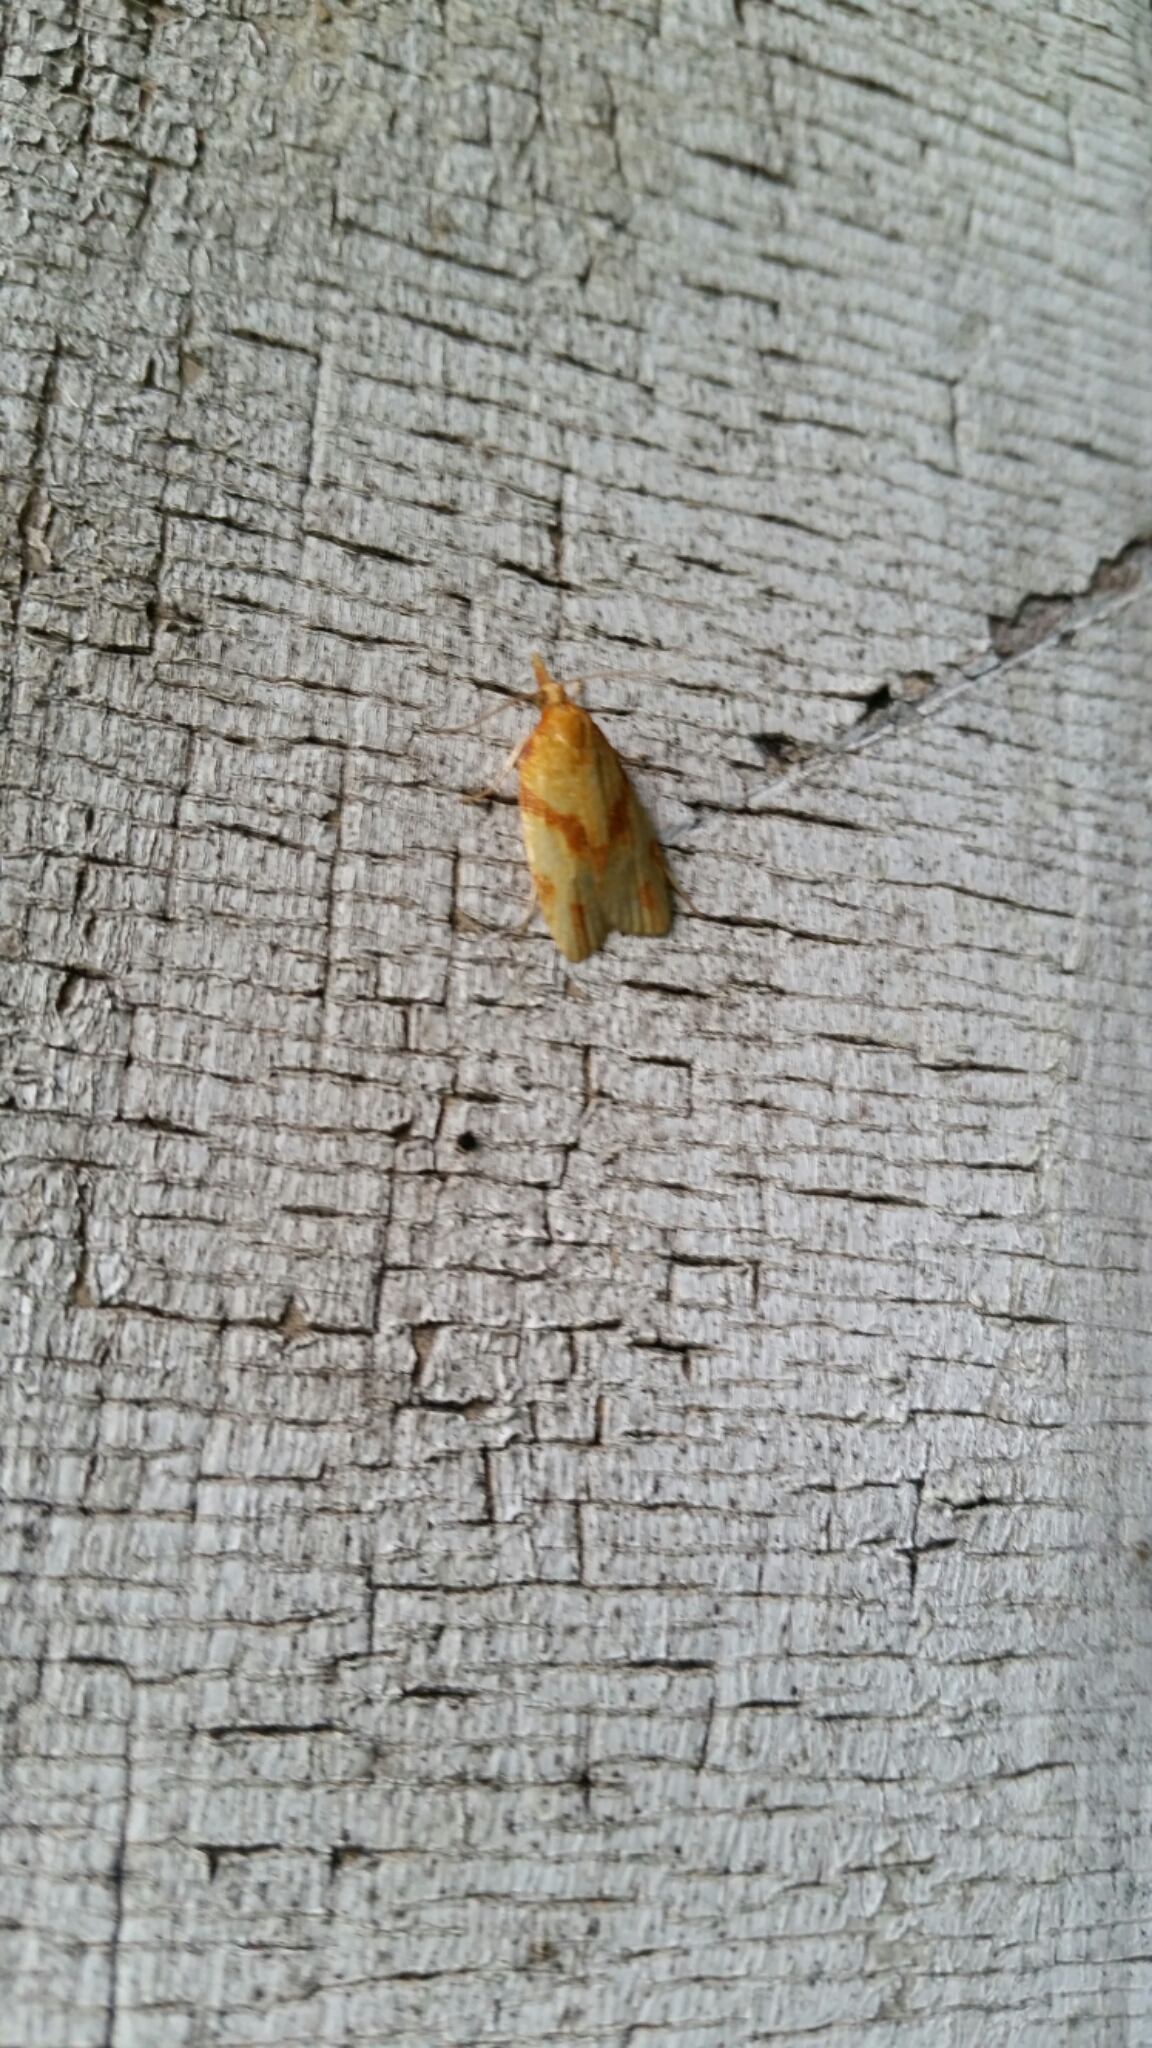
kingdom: Animalia
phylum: Arthropoda
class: Insecta
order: Lepidoptera
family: Tortricidae
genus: Sparganothis
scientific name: Sparganothis unifasciana
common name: One-lined sparganothis moth
